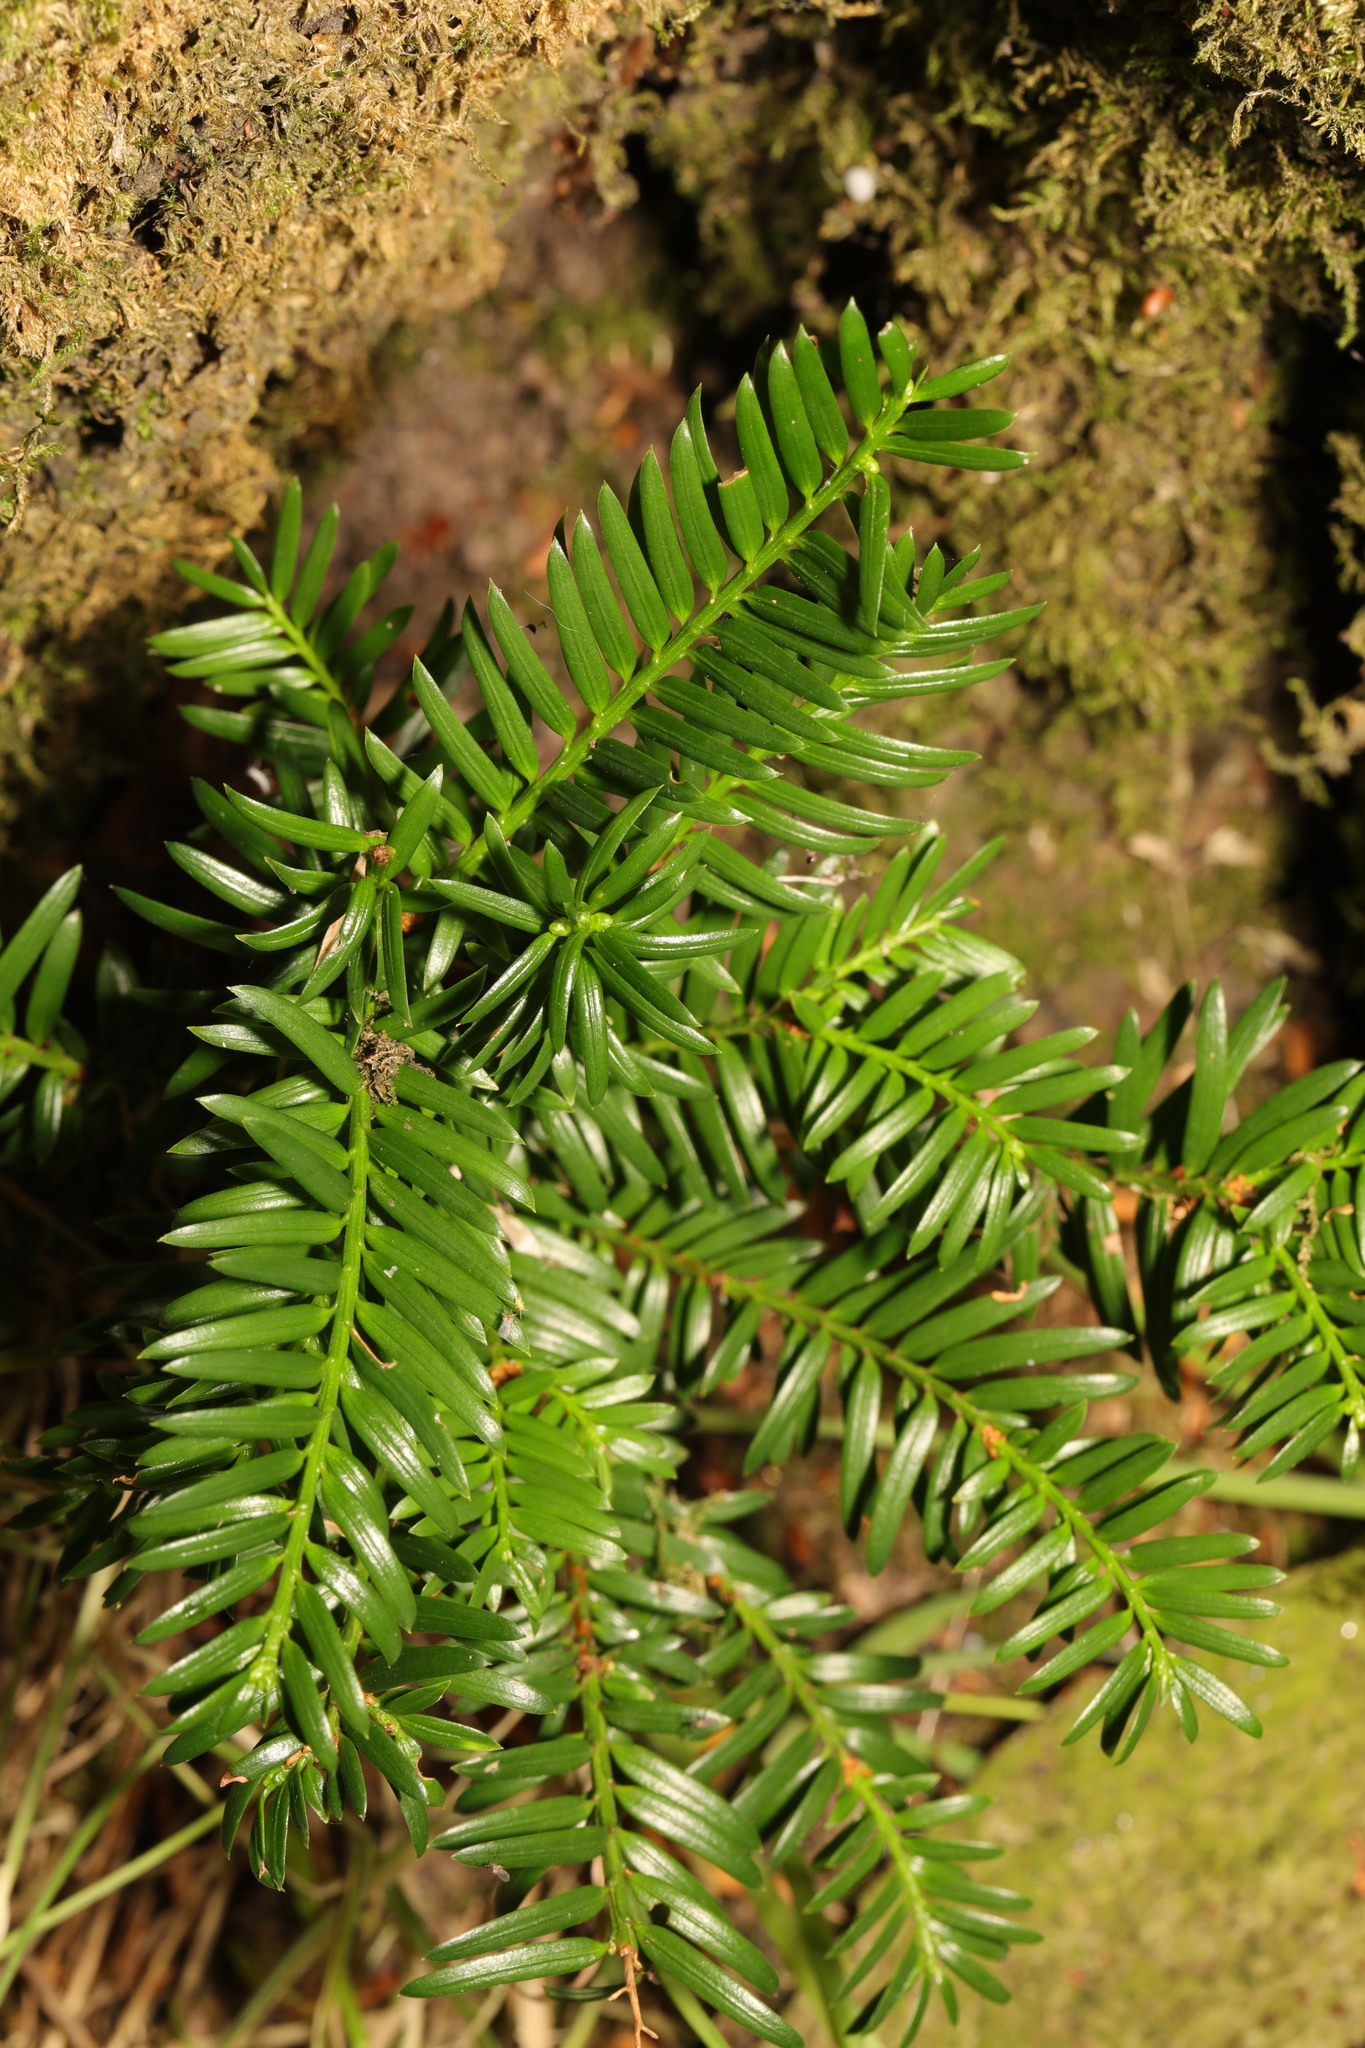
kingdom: Plantae
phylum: Tracheophyta
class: Pinopsida
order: Pinales
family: Taxaceae
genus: Taxus
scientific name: Taxus baccata
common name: Yew
